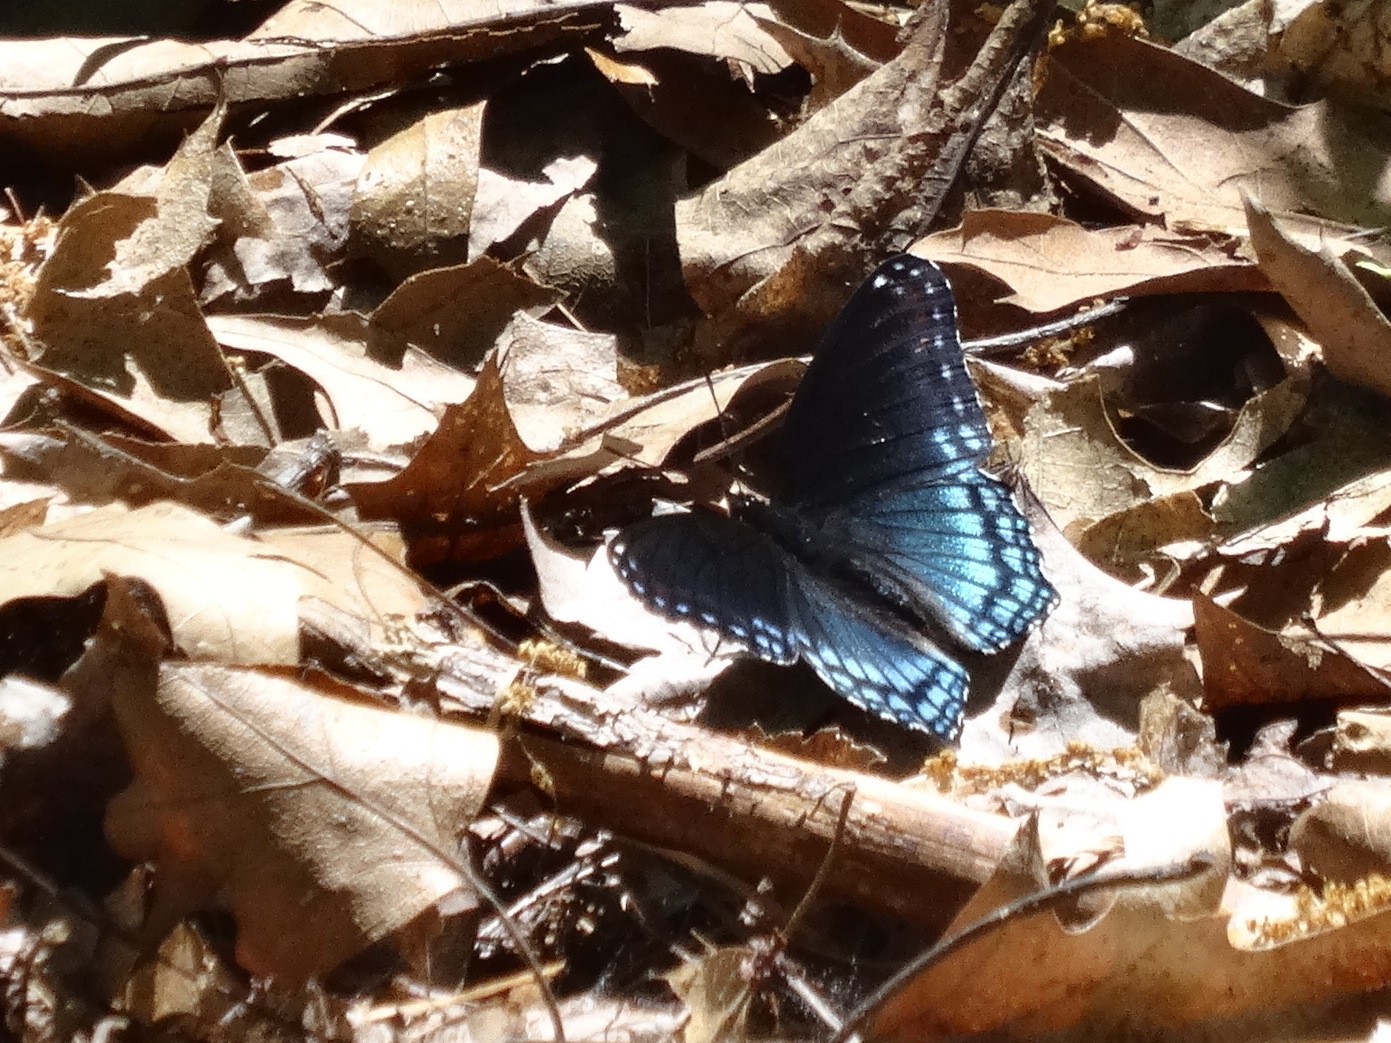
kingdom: Animalia
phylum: Arthropoda
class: Insecta
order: Lepidoptera
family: Nymphalidae
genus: Limenitis
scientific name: Limenitis astyanax
